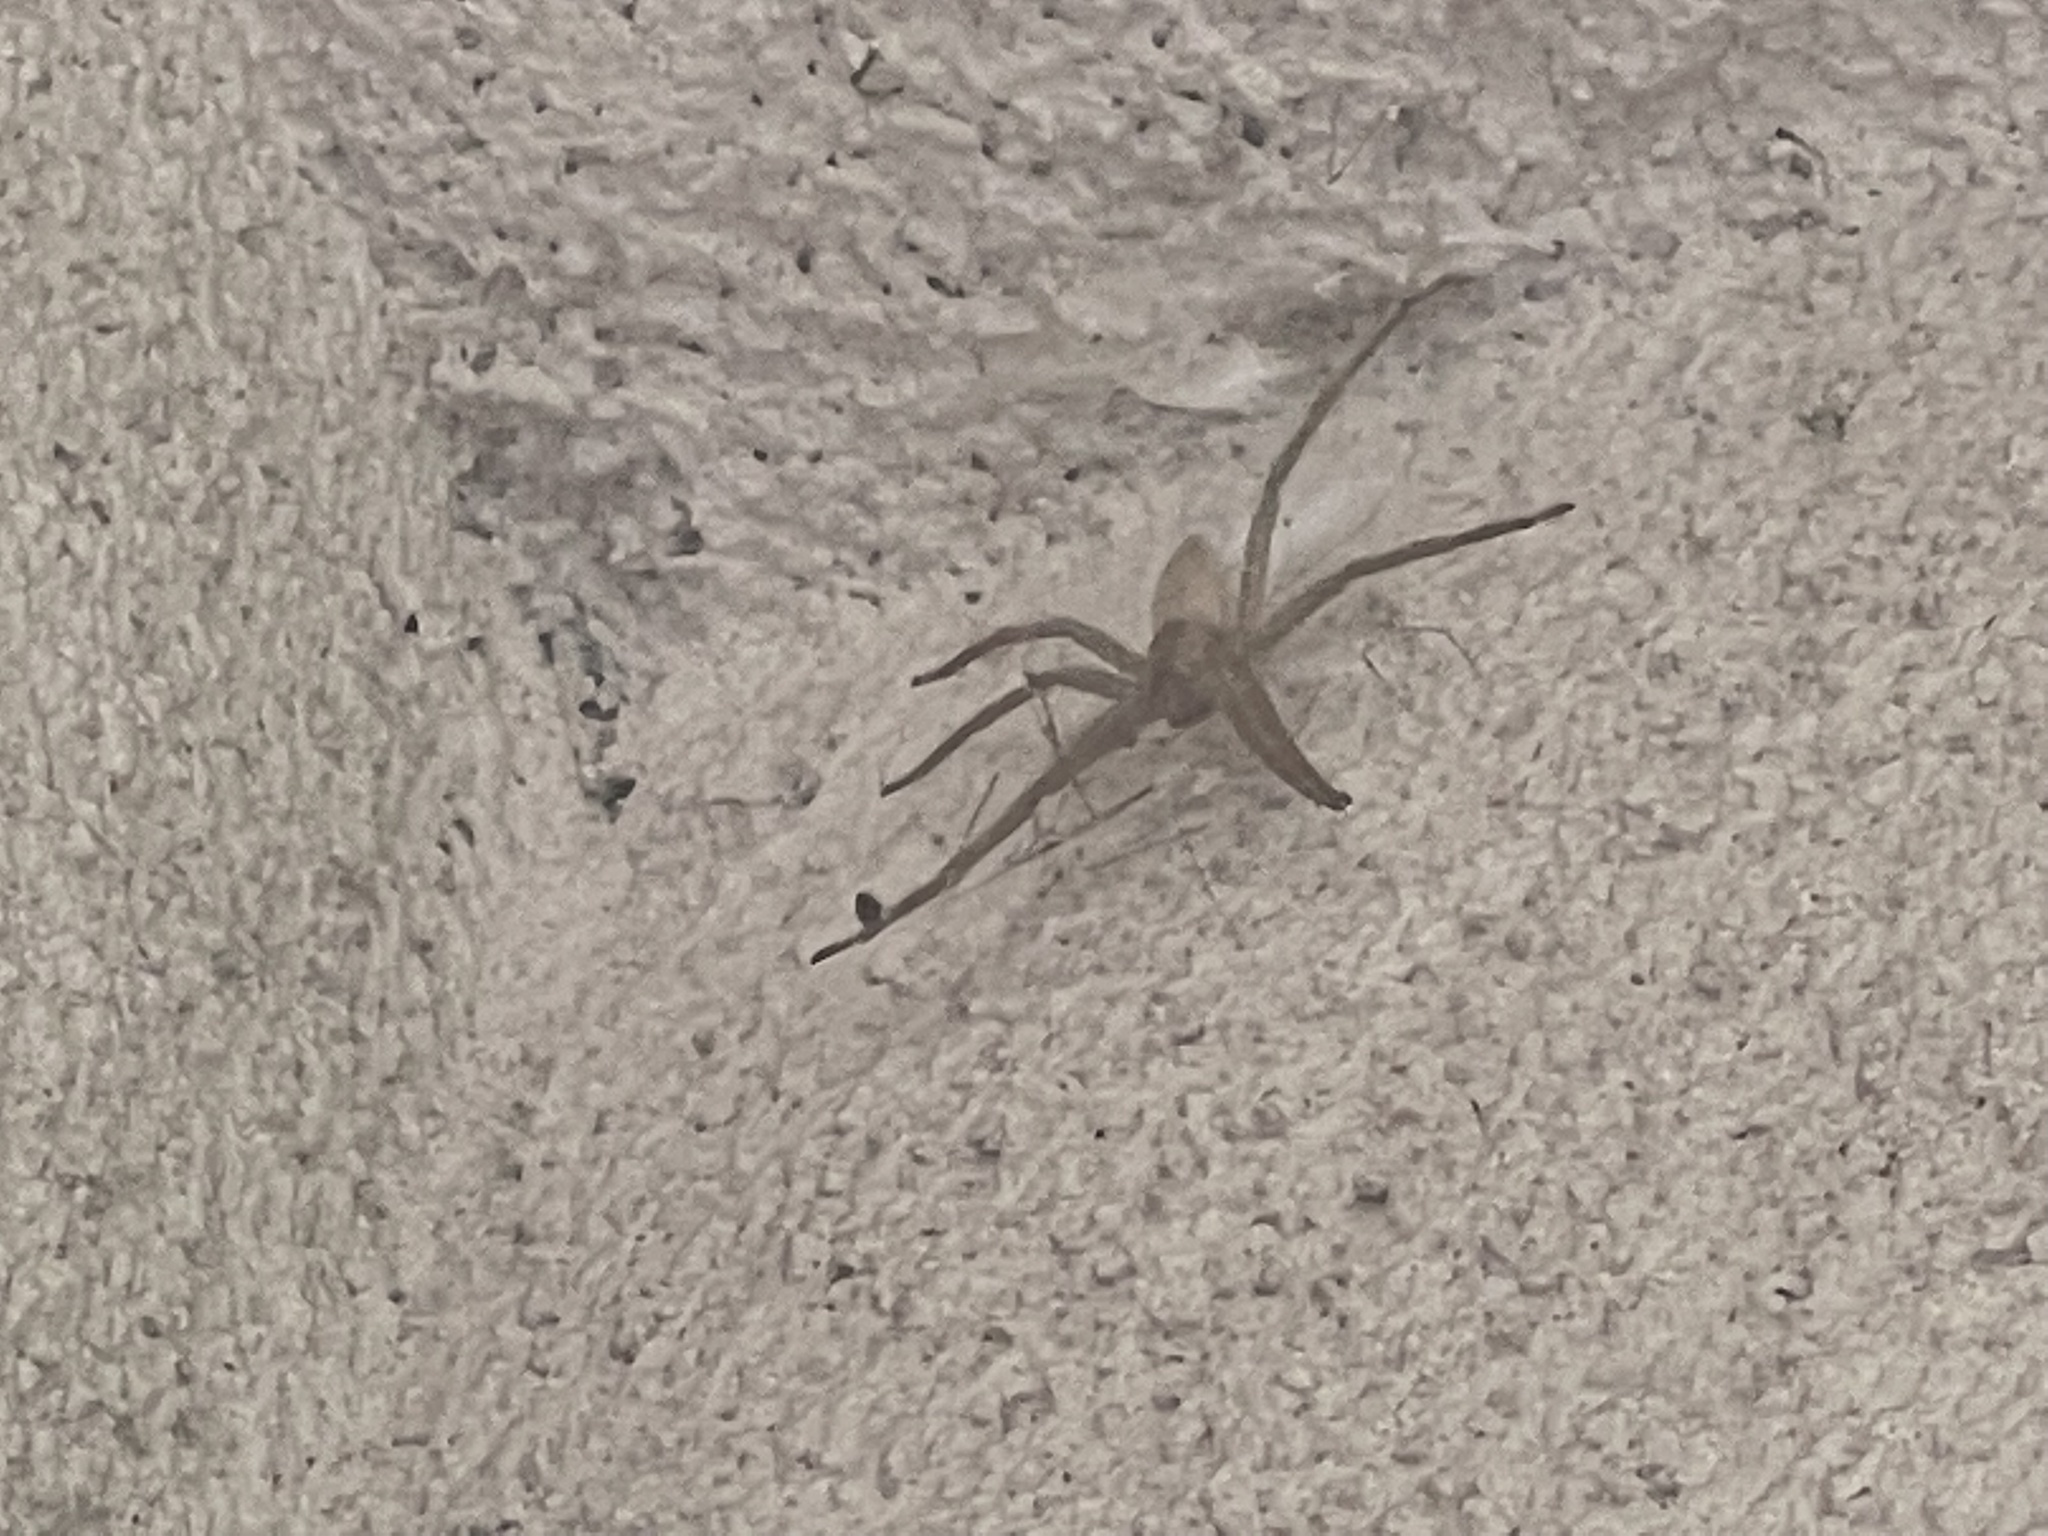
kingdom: Animalia
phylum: Arthropoda
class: Arachnida
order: Araneae
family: Pisauridae
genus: Pisaurina
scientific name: Pisaurina mira
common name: American nursery web spider
